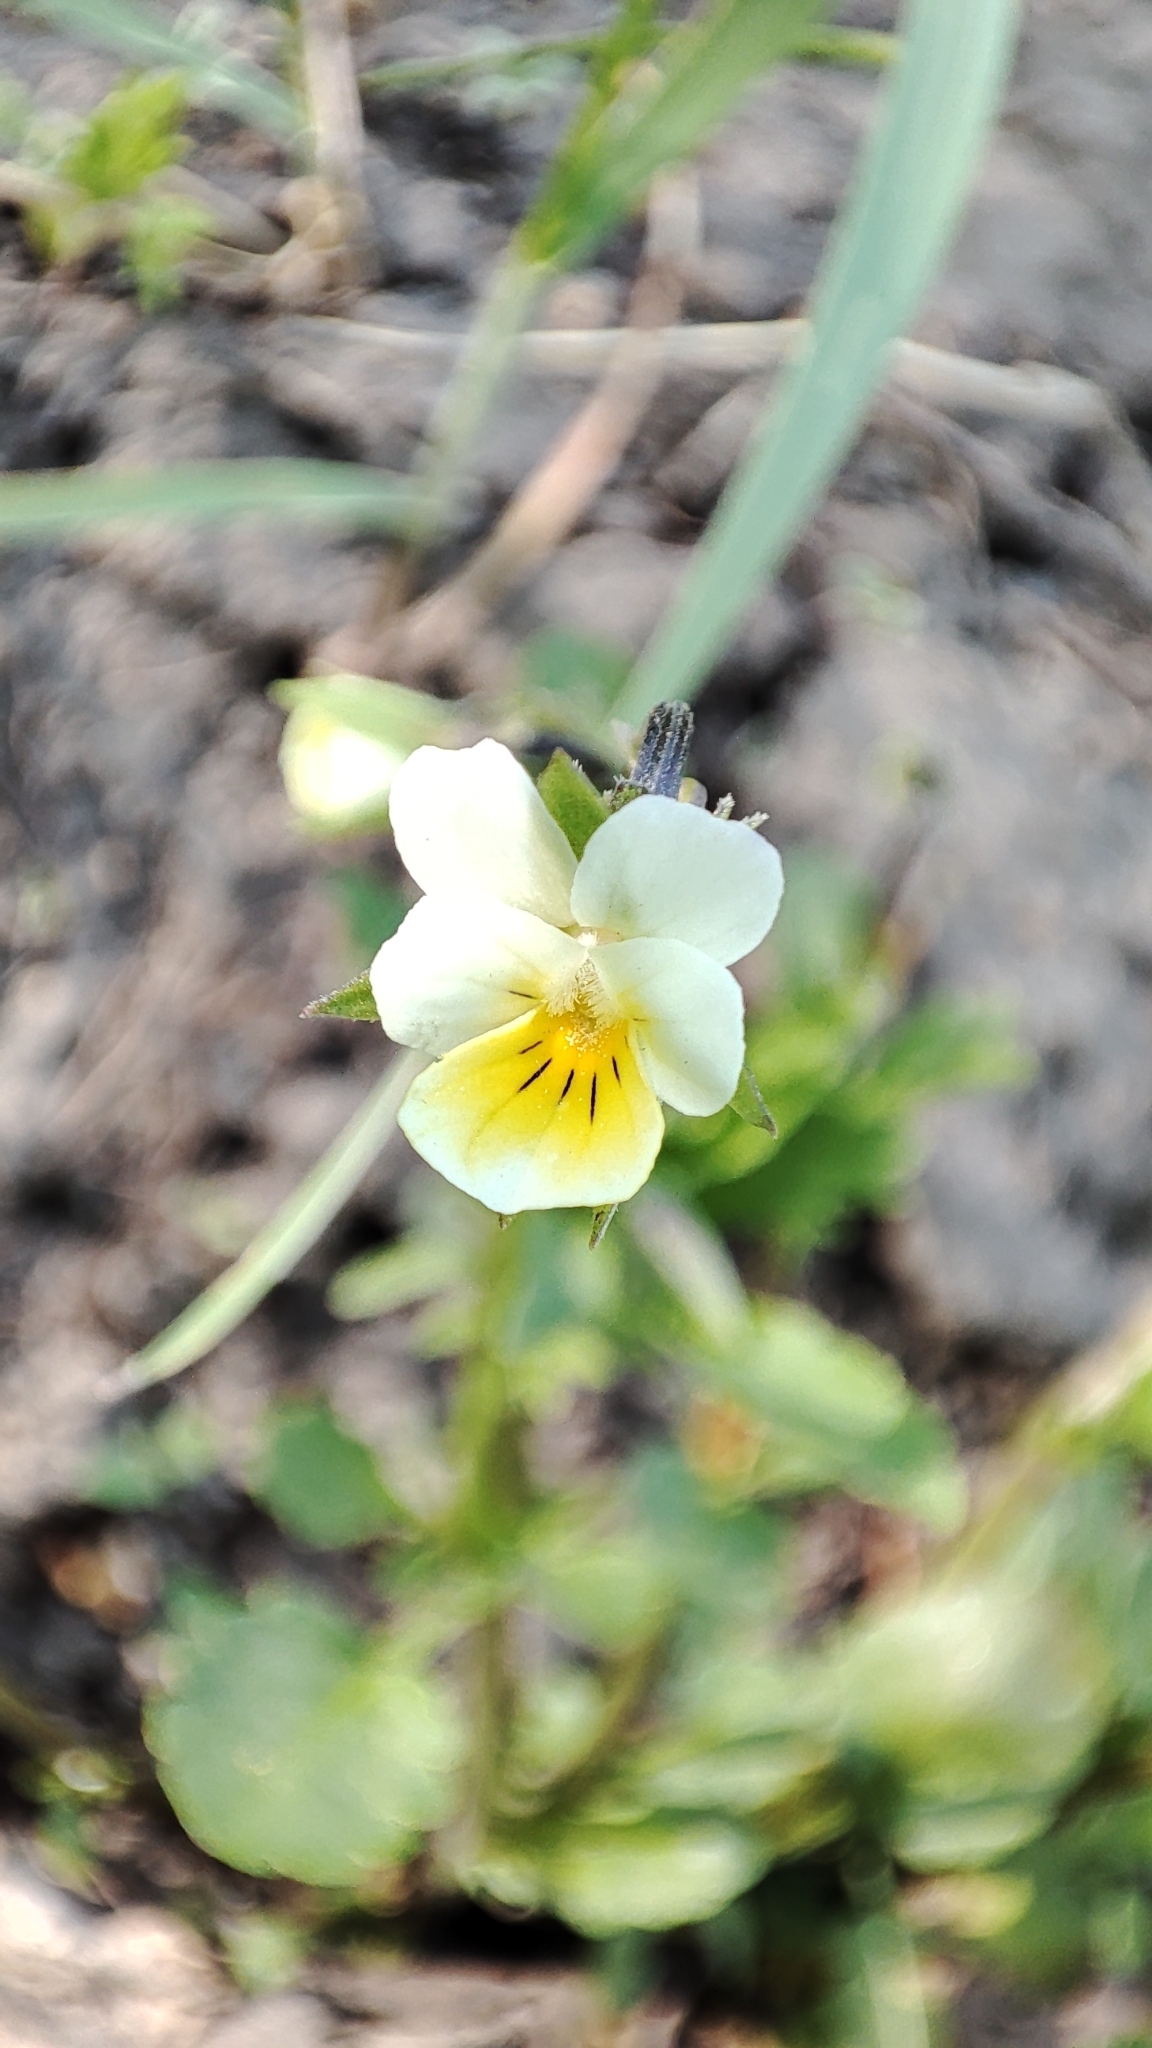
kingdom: Plantae
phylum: Tracheophyta
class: Magnoliopsida
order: Malpighiales
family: Violaceae
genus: Viola
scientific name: Viola arvensis
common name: Field pansy
